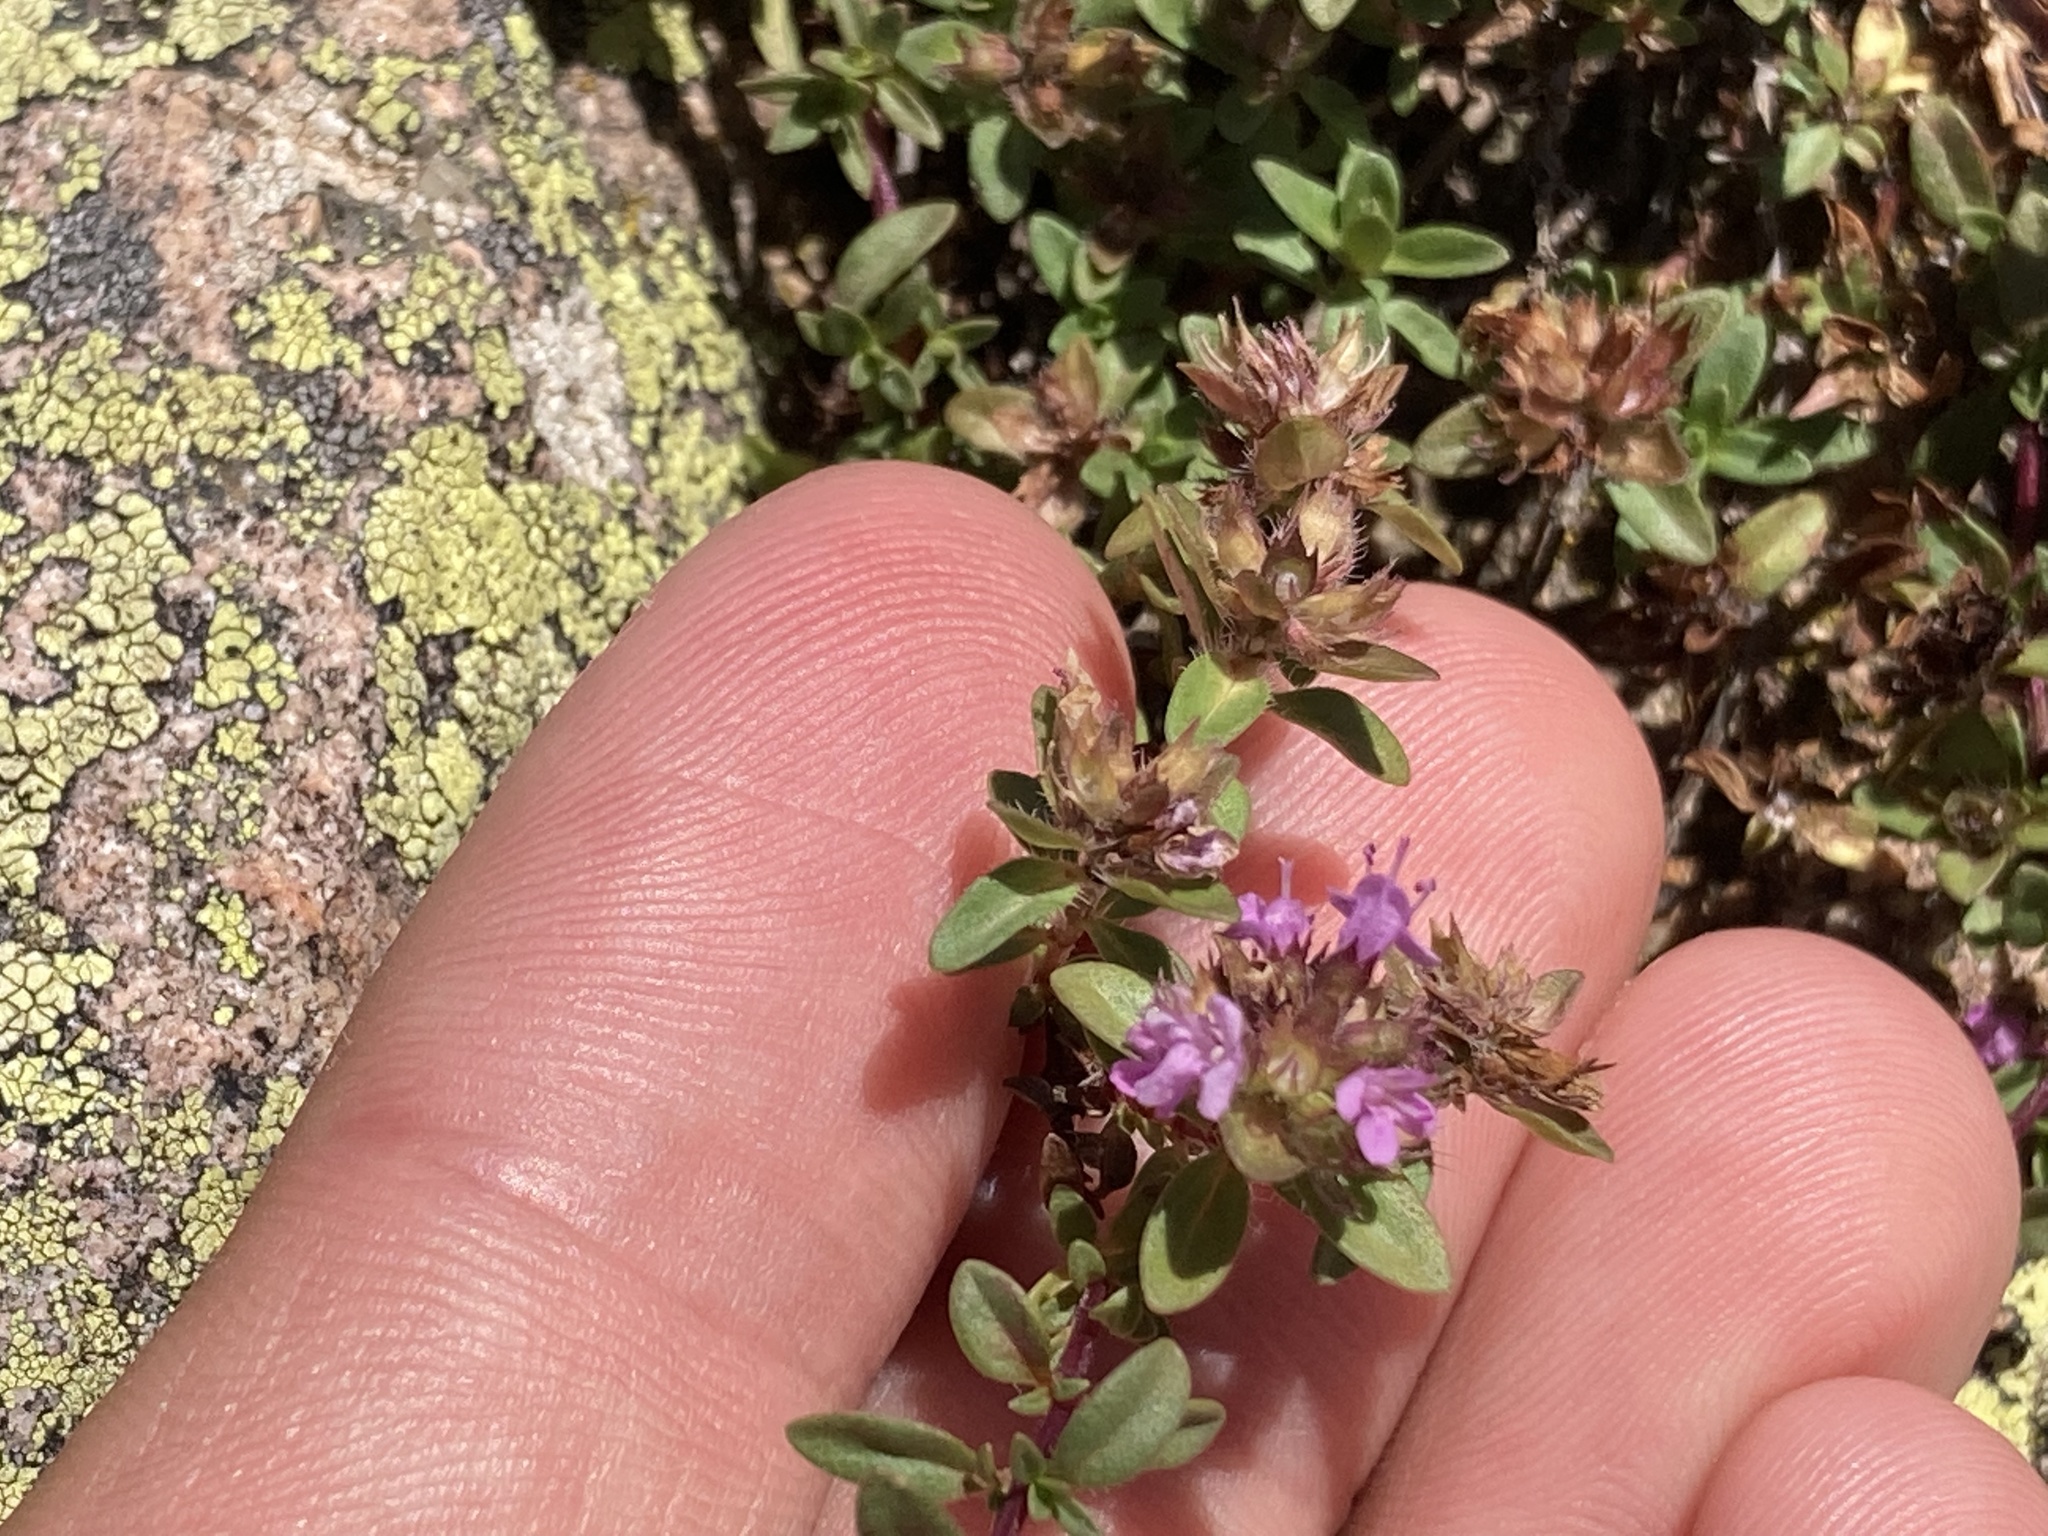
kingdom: Plantae
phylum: Tracheophyta
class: Magnoliopsida
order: Lamiales
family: Lamiaceae
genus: Thymus
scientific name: Thymus pulegioides
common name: Large thyme
